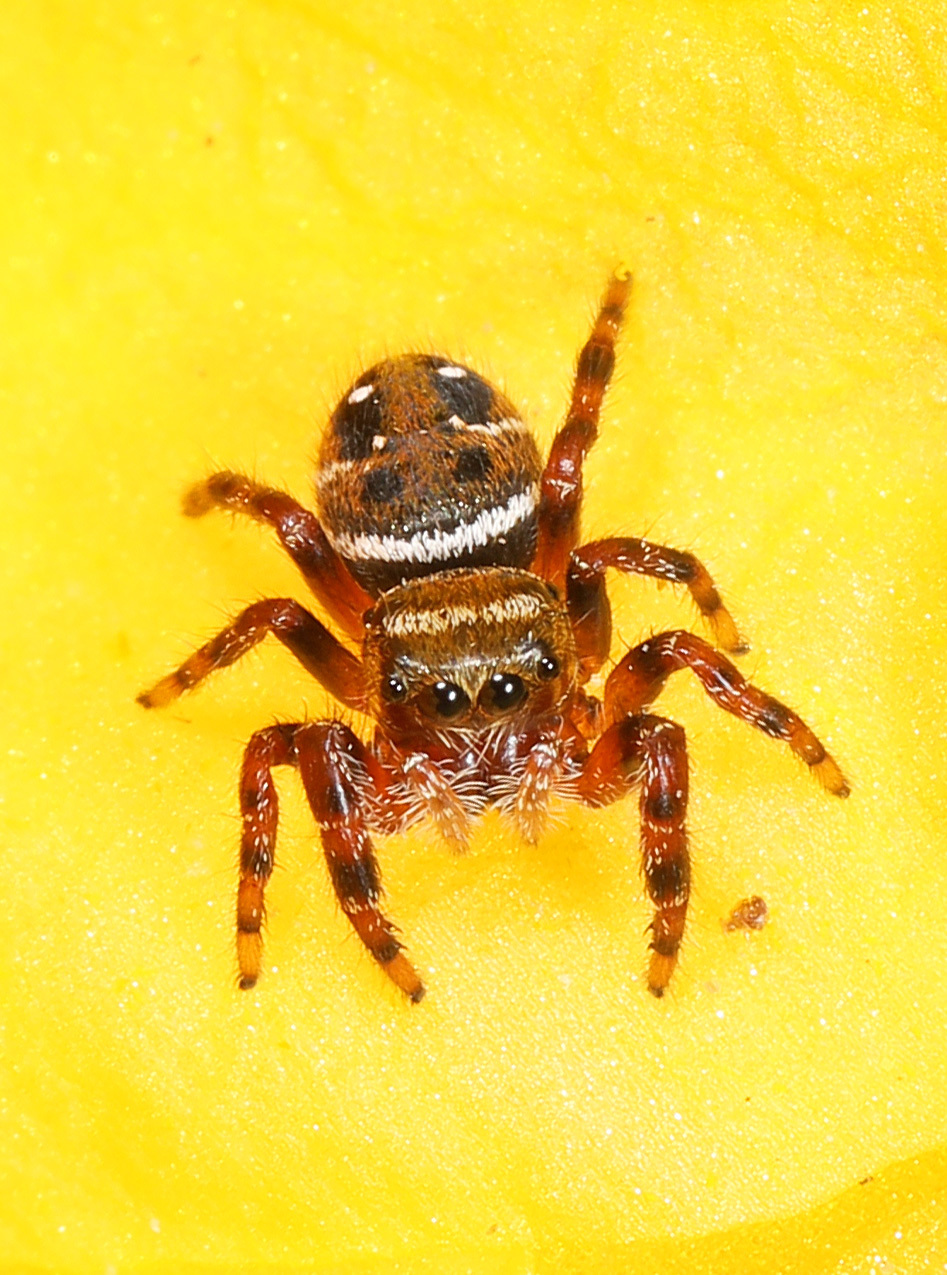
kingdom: Animalia
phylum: Arthropoda
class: Arachnida
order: Araneae
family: Salticidae
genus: Phidippus
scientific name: Phidippus clarus
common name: Brilliant jumping spider
